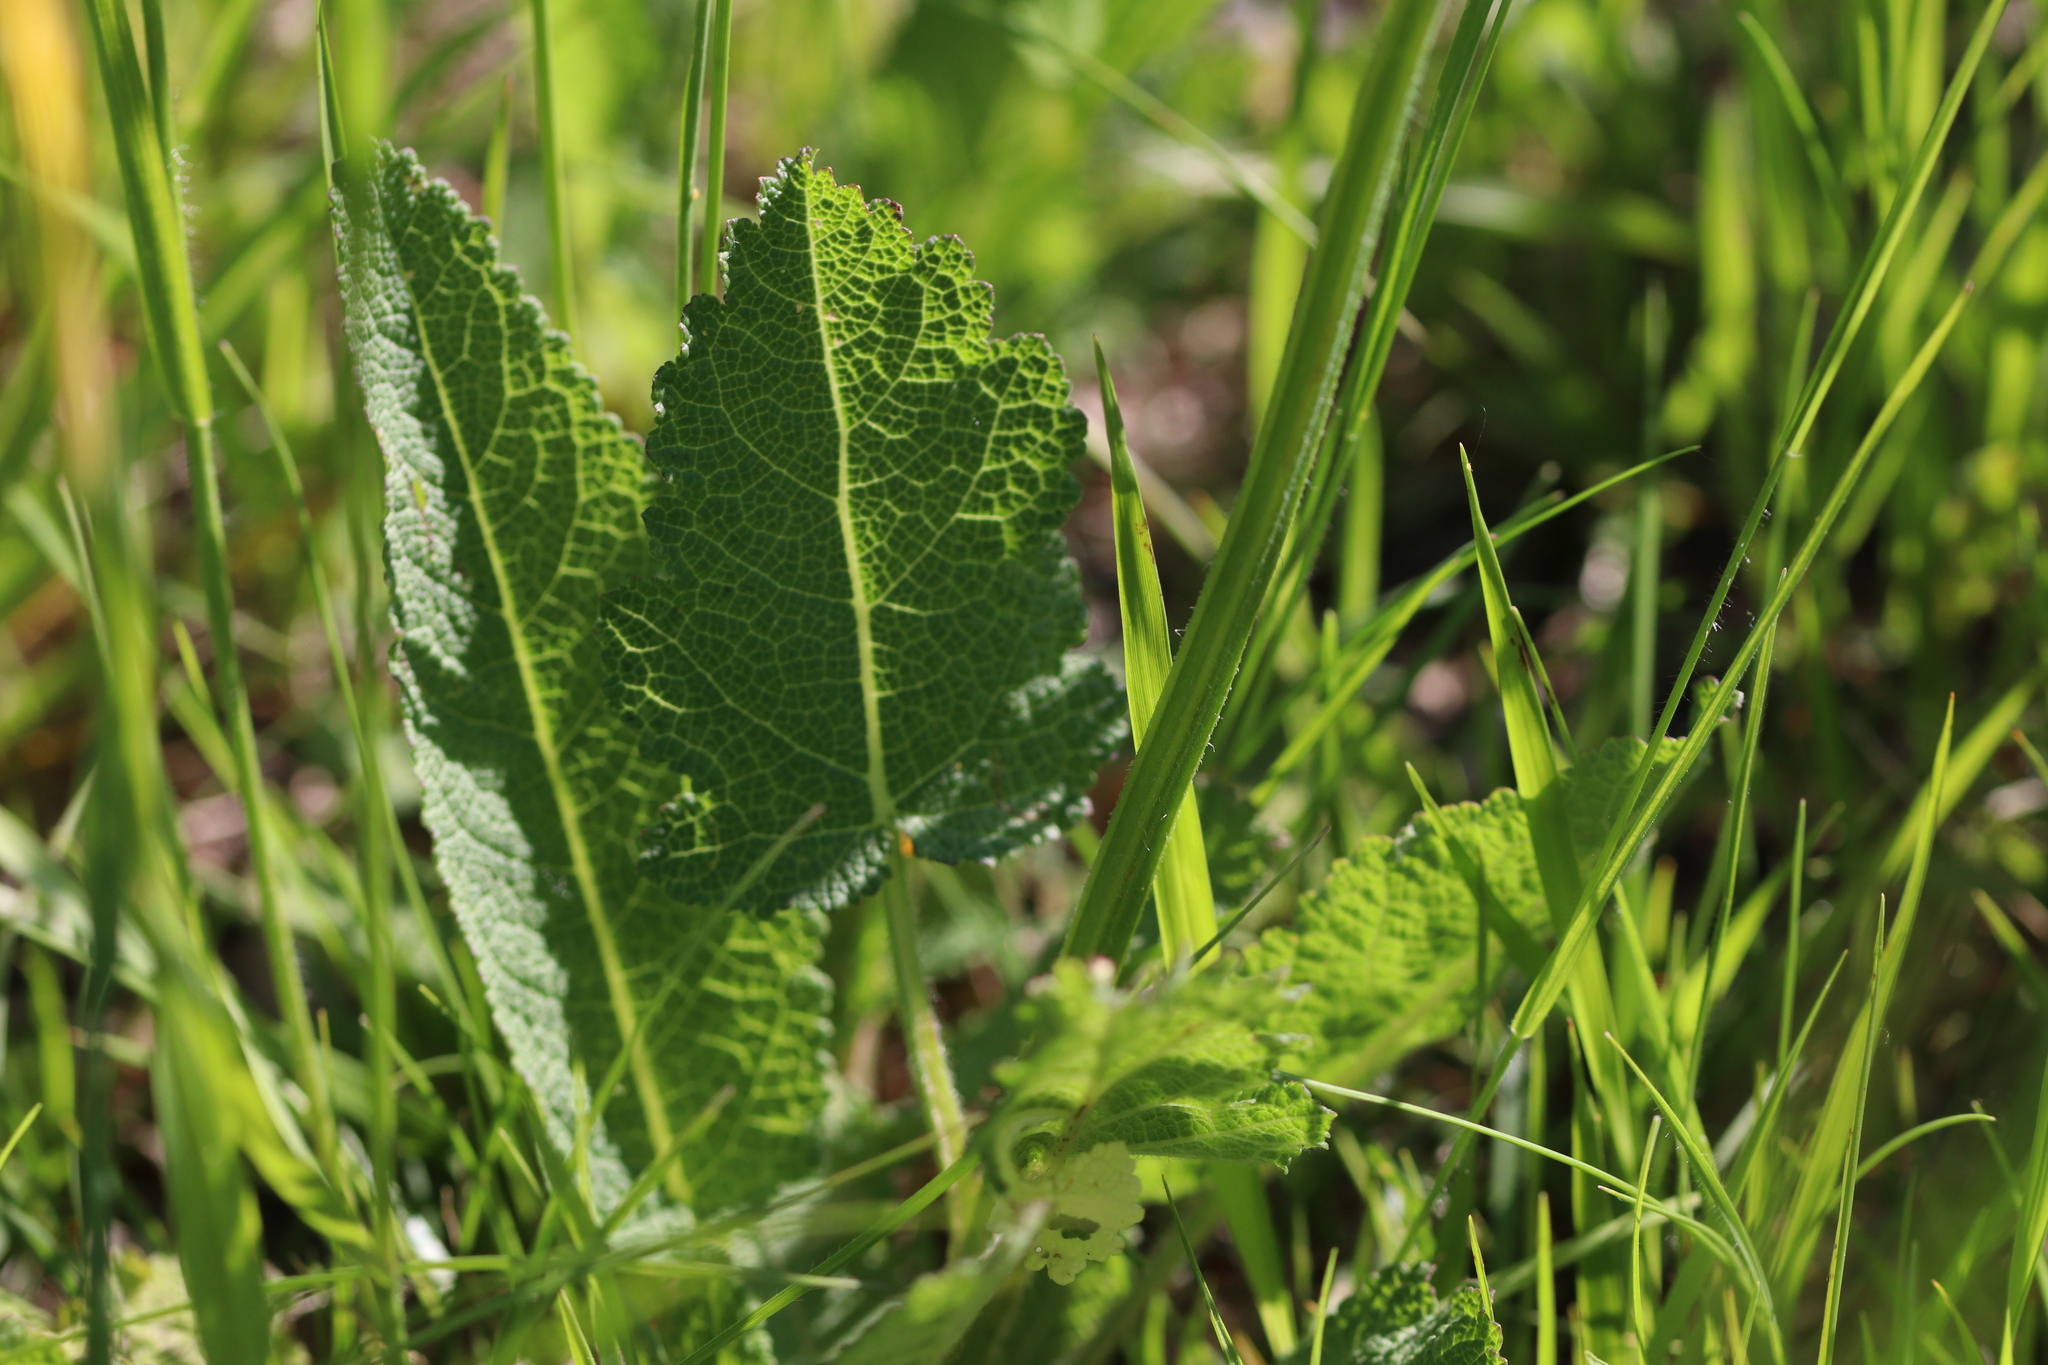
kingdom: Plantae
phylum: Tracheophyta
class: Magnoliopsida
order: Lamiales
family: Lamiaceae
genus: Salvia
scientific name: Salvia pratensis
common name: Meadow sage
